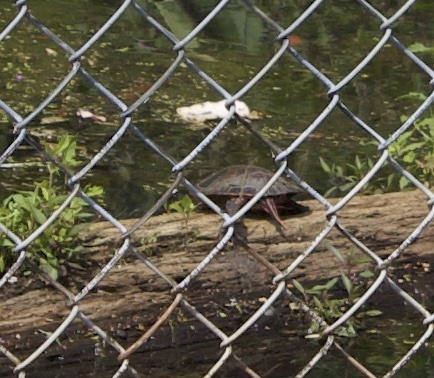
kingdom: Animalia
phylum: Chordata
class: Testudines
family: Emydidae
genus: Chrysemys
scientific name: Chrysemys picta
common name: Painted turtle
